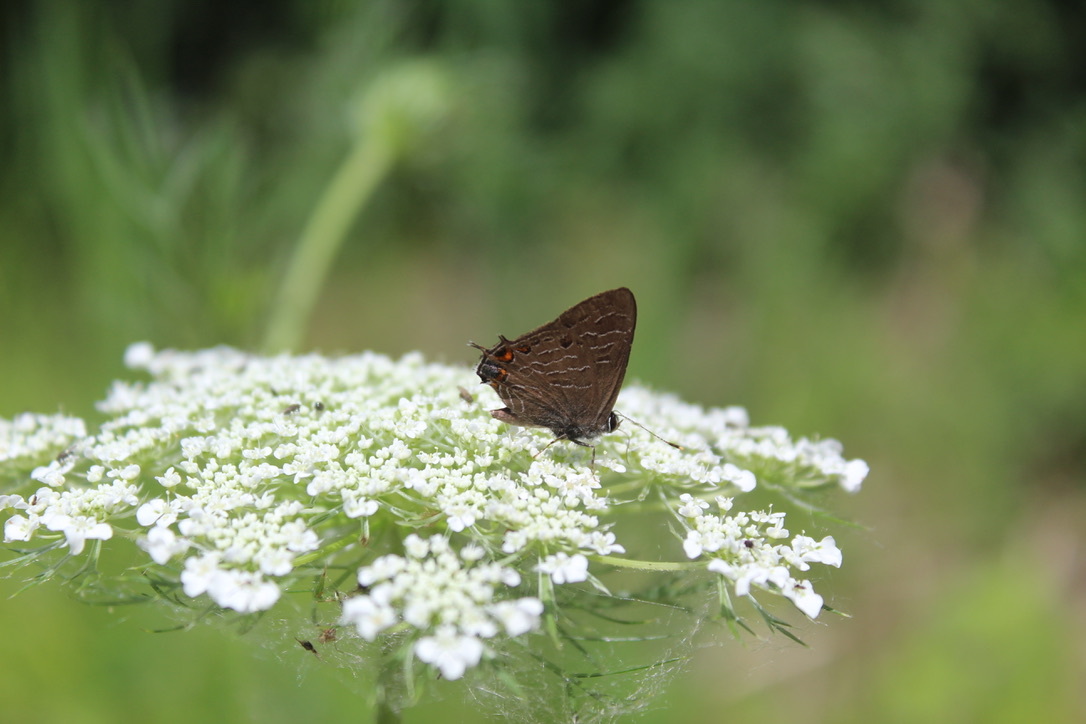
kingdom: Animalia
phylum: Arthropoda
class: Insecta
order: Lepidoptera
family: Lycaenidae
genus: Satyrium
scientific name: Satyrium liparops
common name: Striped hairstreak
